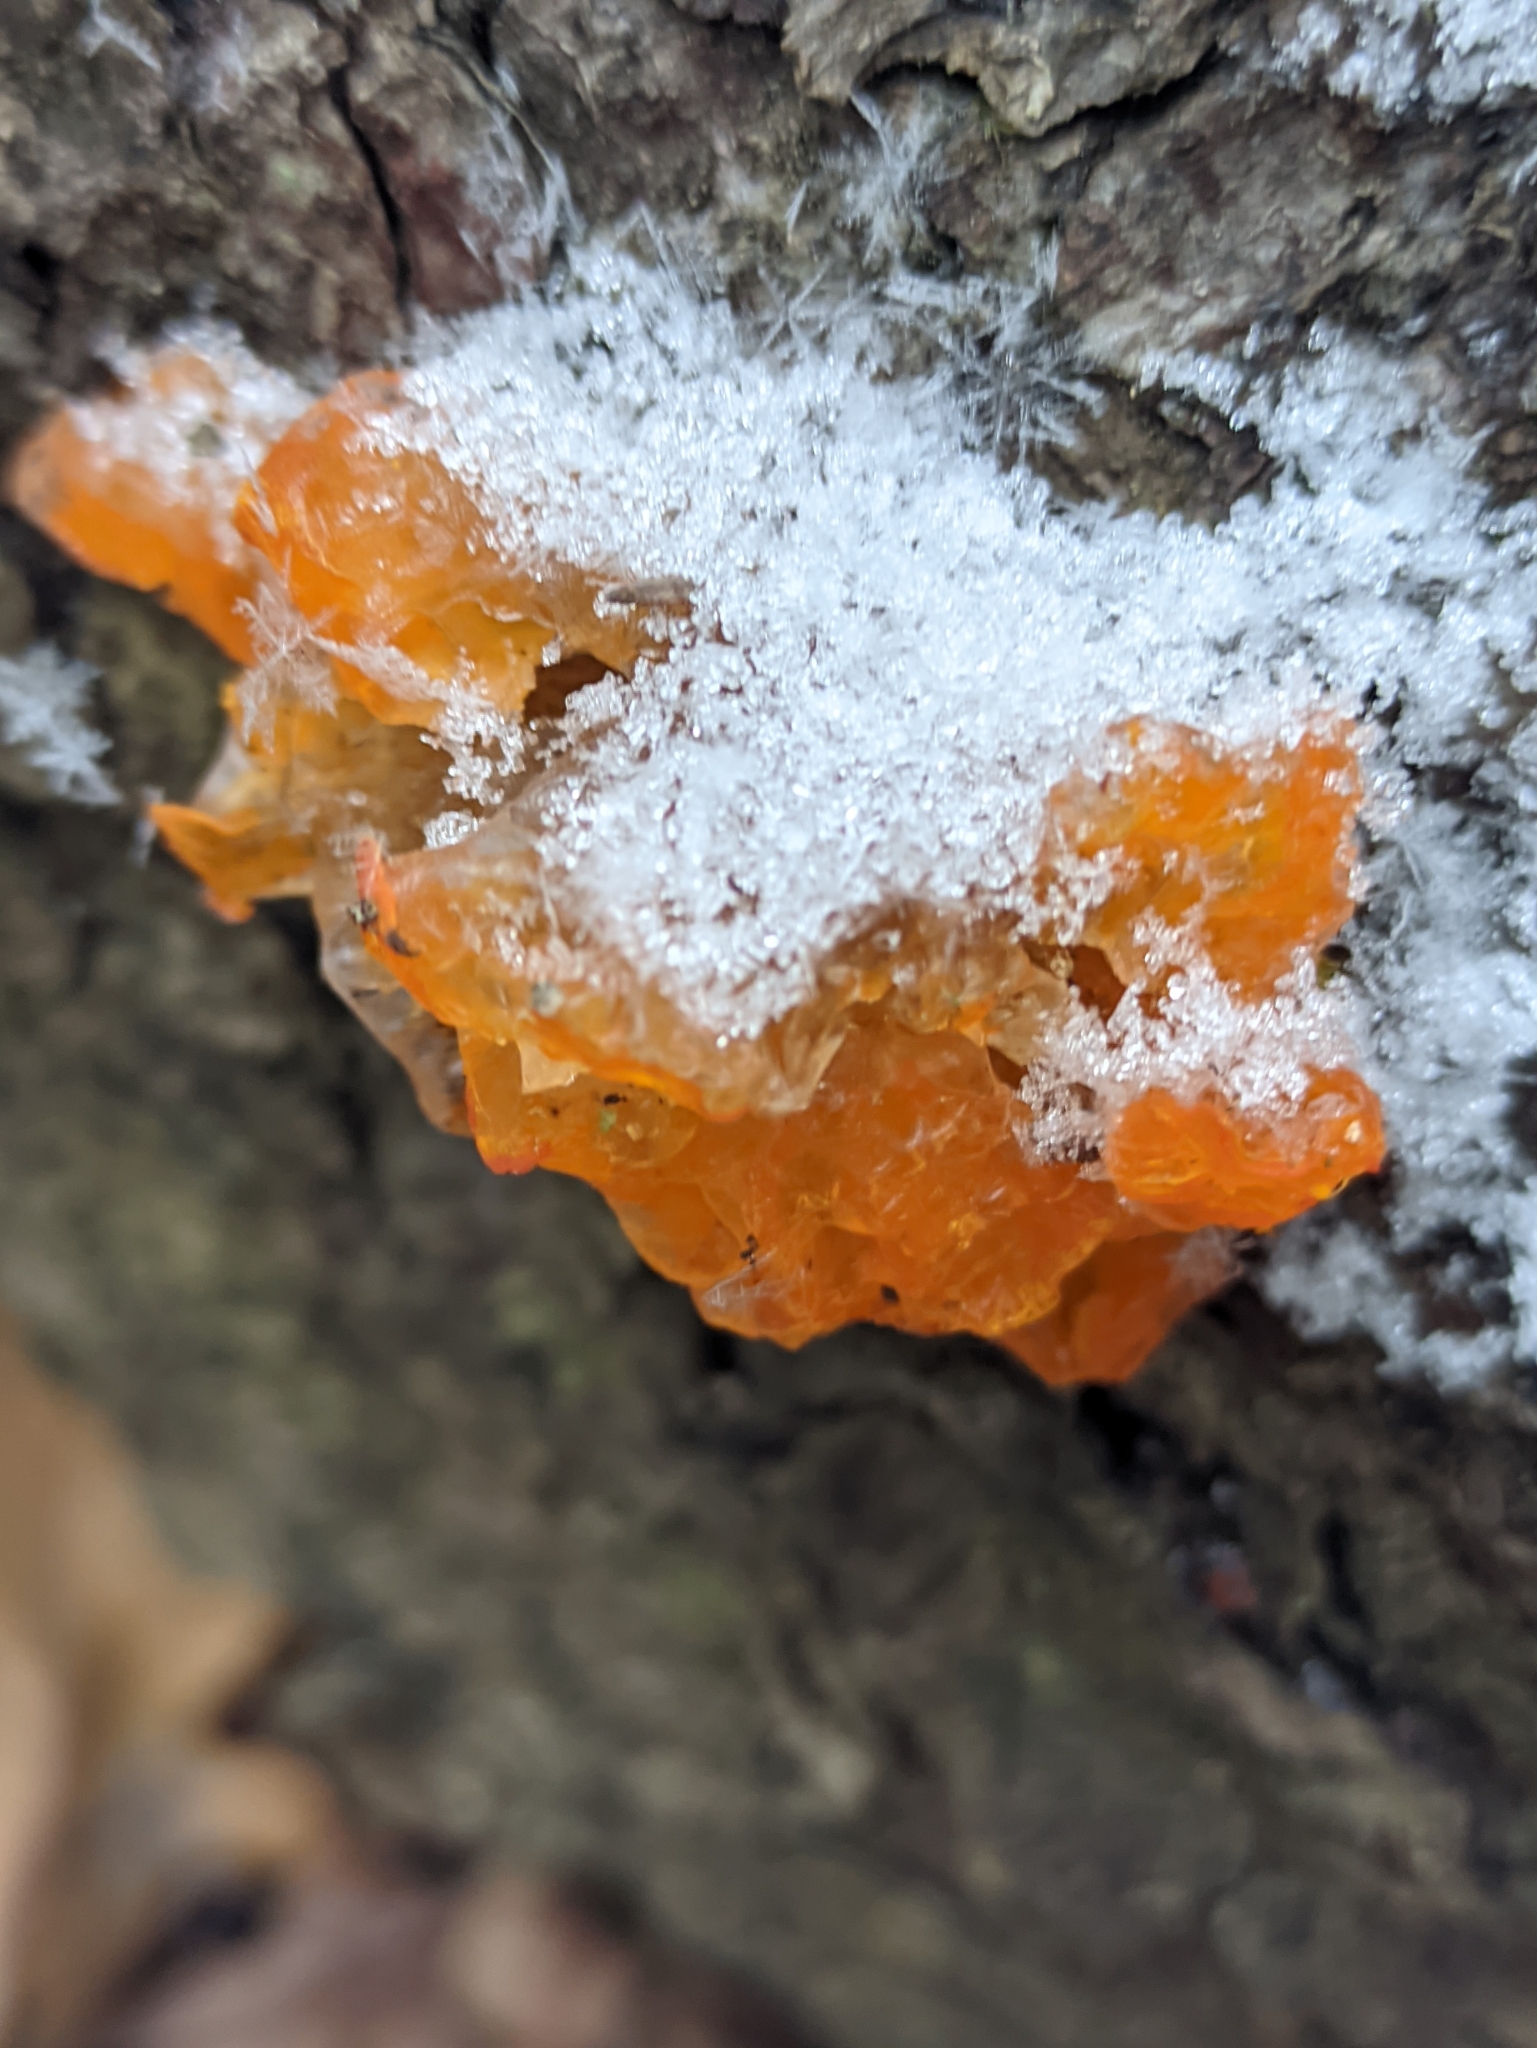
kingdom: Fungi
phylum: Basidiomycota
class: Tremellomycetes
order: Tremellales
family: Tremellaceae
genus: Tremella
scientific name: Tremella mesenterica
